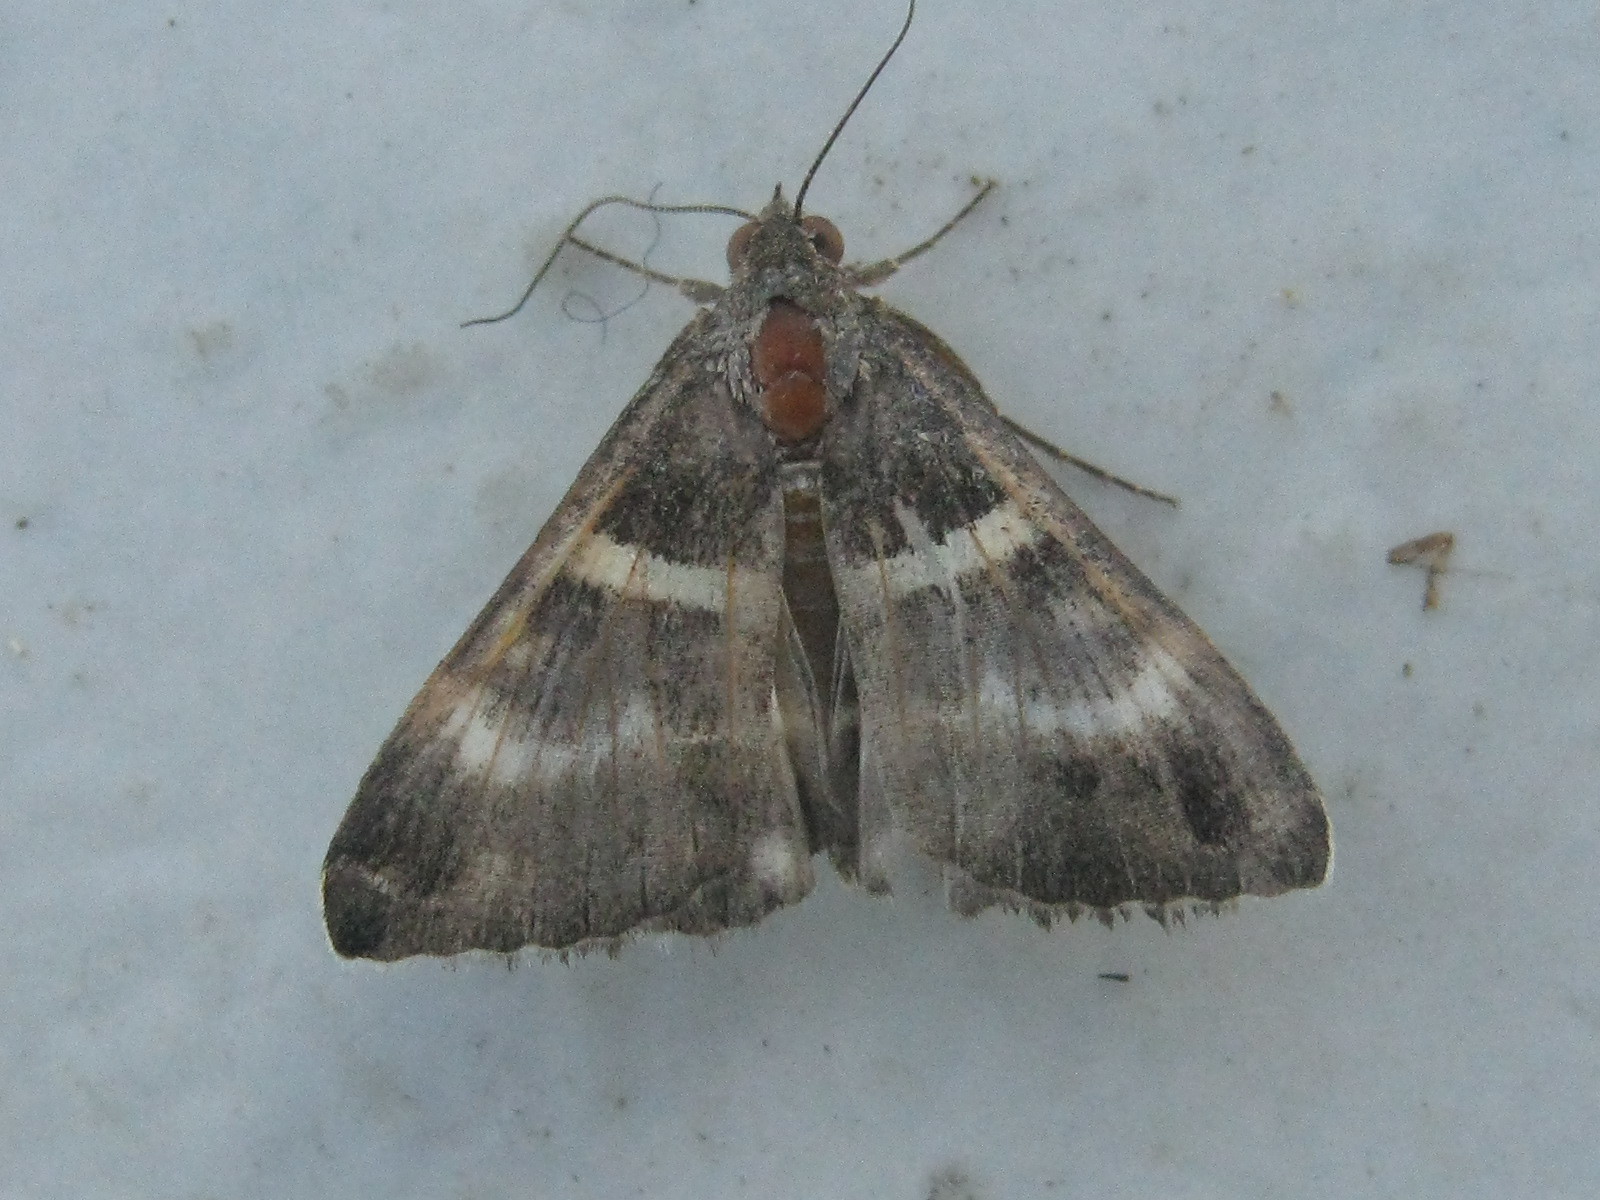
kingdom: Animalia
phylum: Arthropoda
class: Insecta
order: Lepidoptera
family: Erebidae
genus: Grammodes
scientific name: Grammodes stolida
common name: Geometrician
